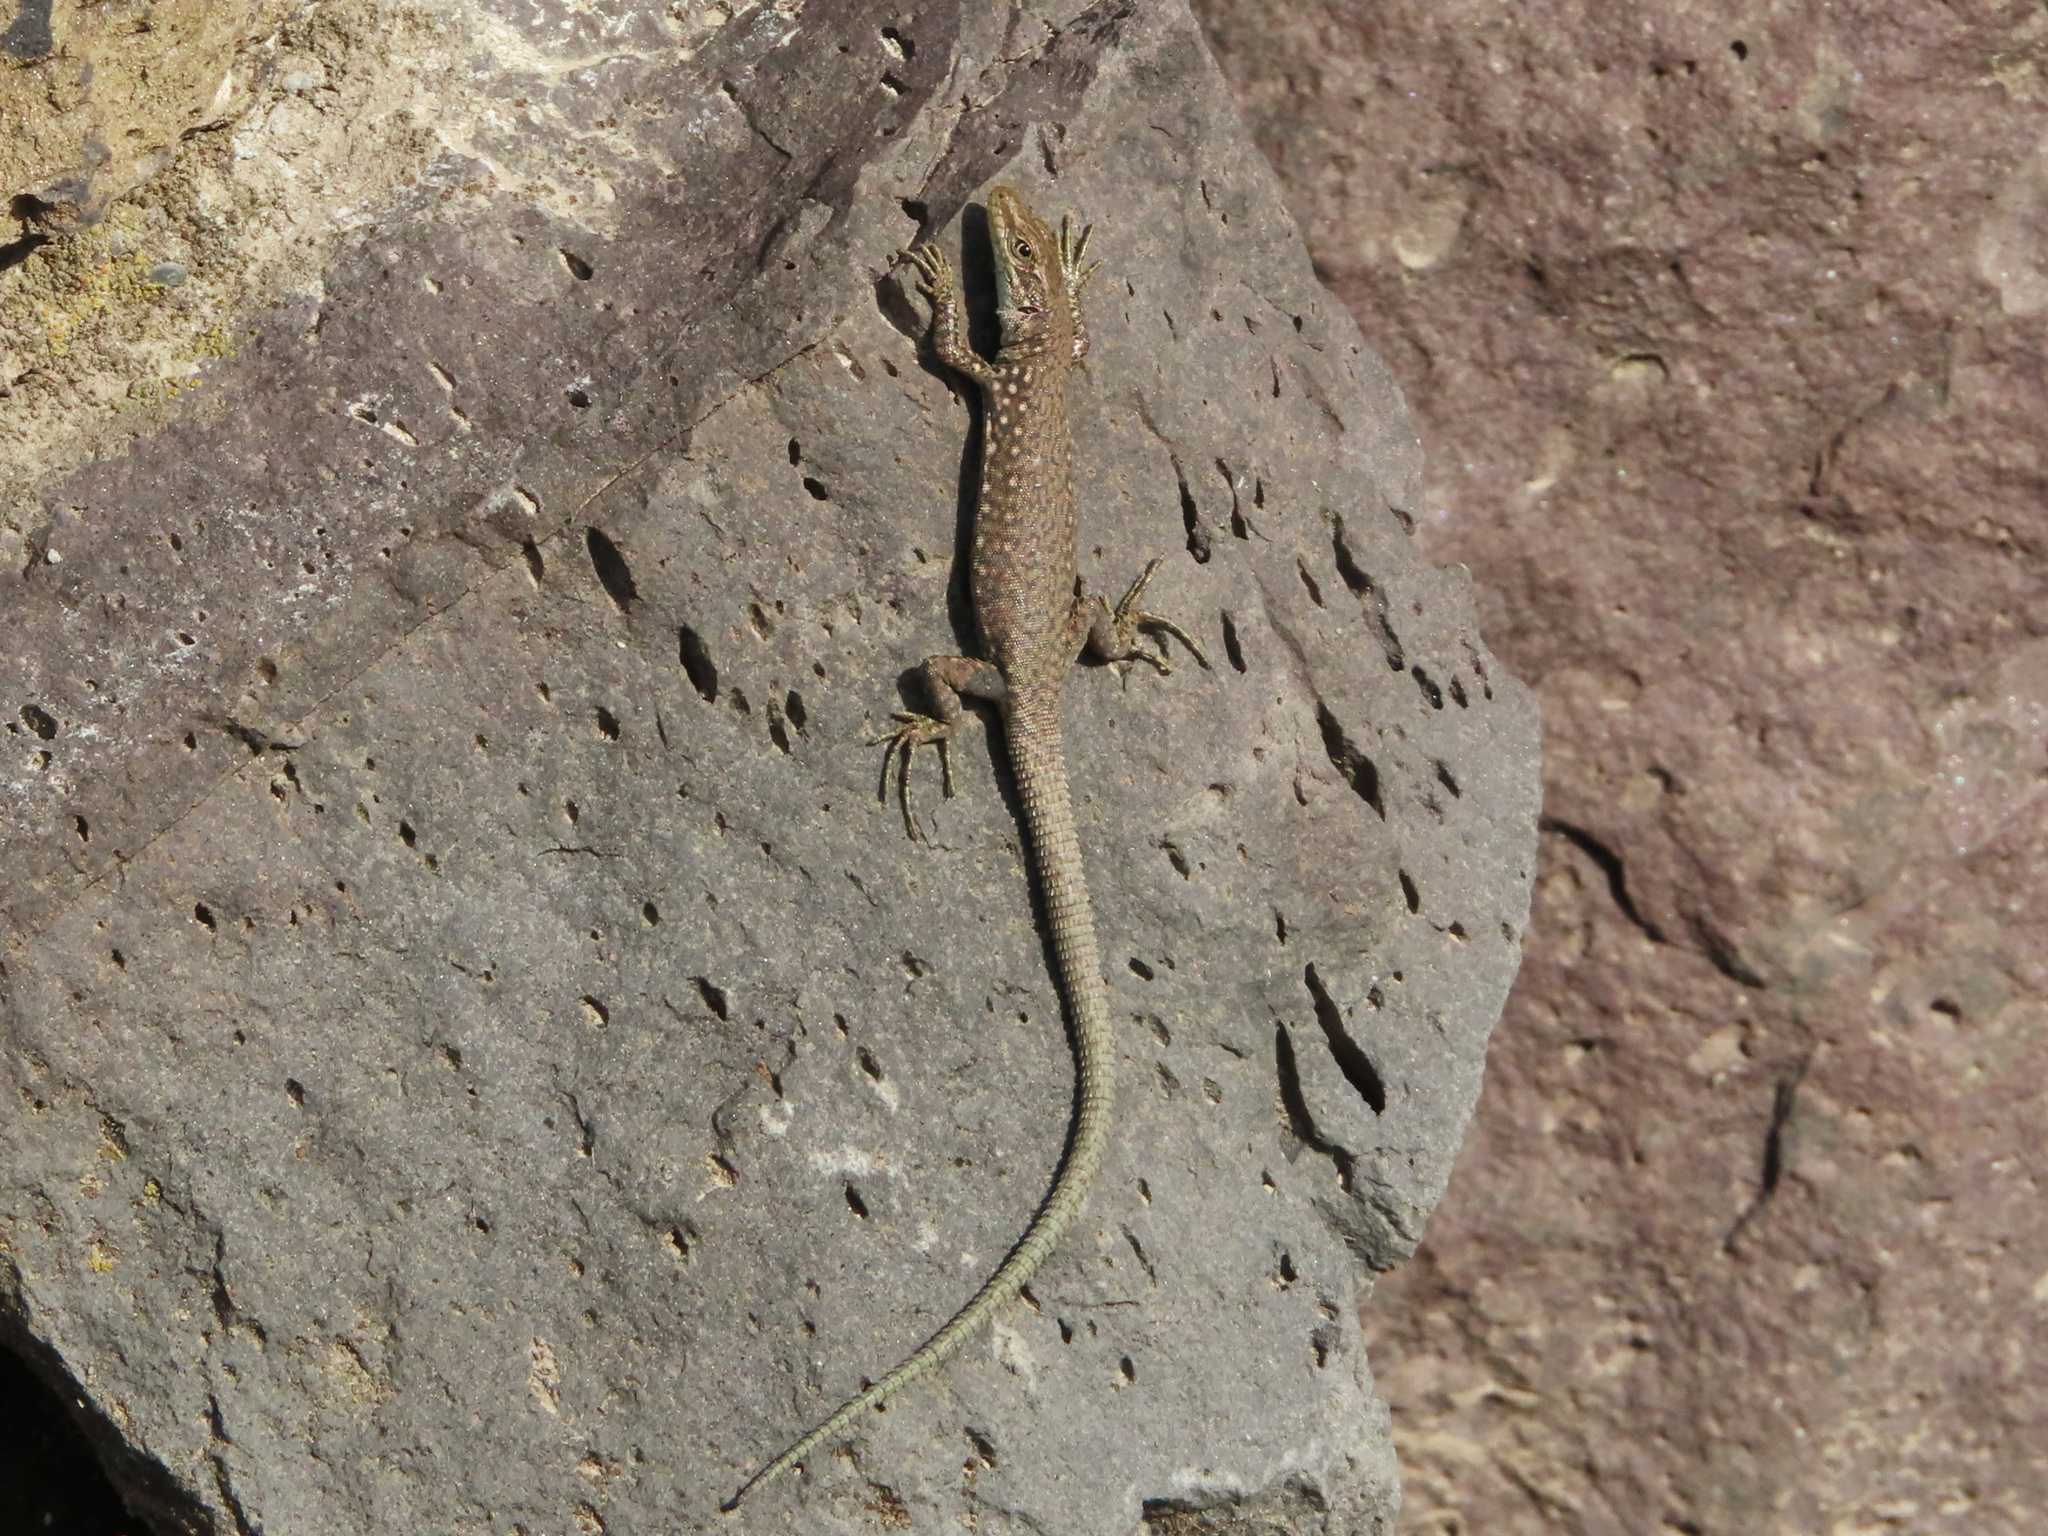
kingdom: Animalia
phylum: Chordata
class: Squamata
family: Lacertidae
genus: Darevskia
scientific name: Darevskia
